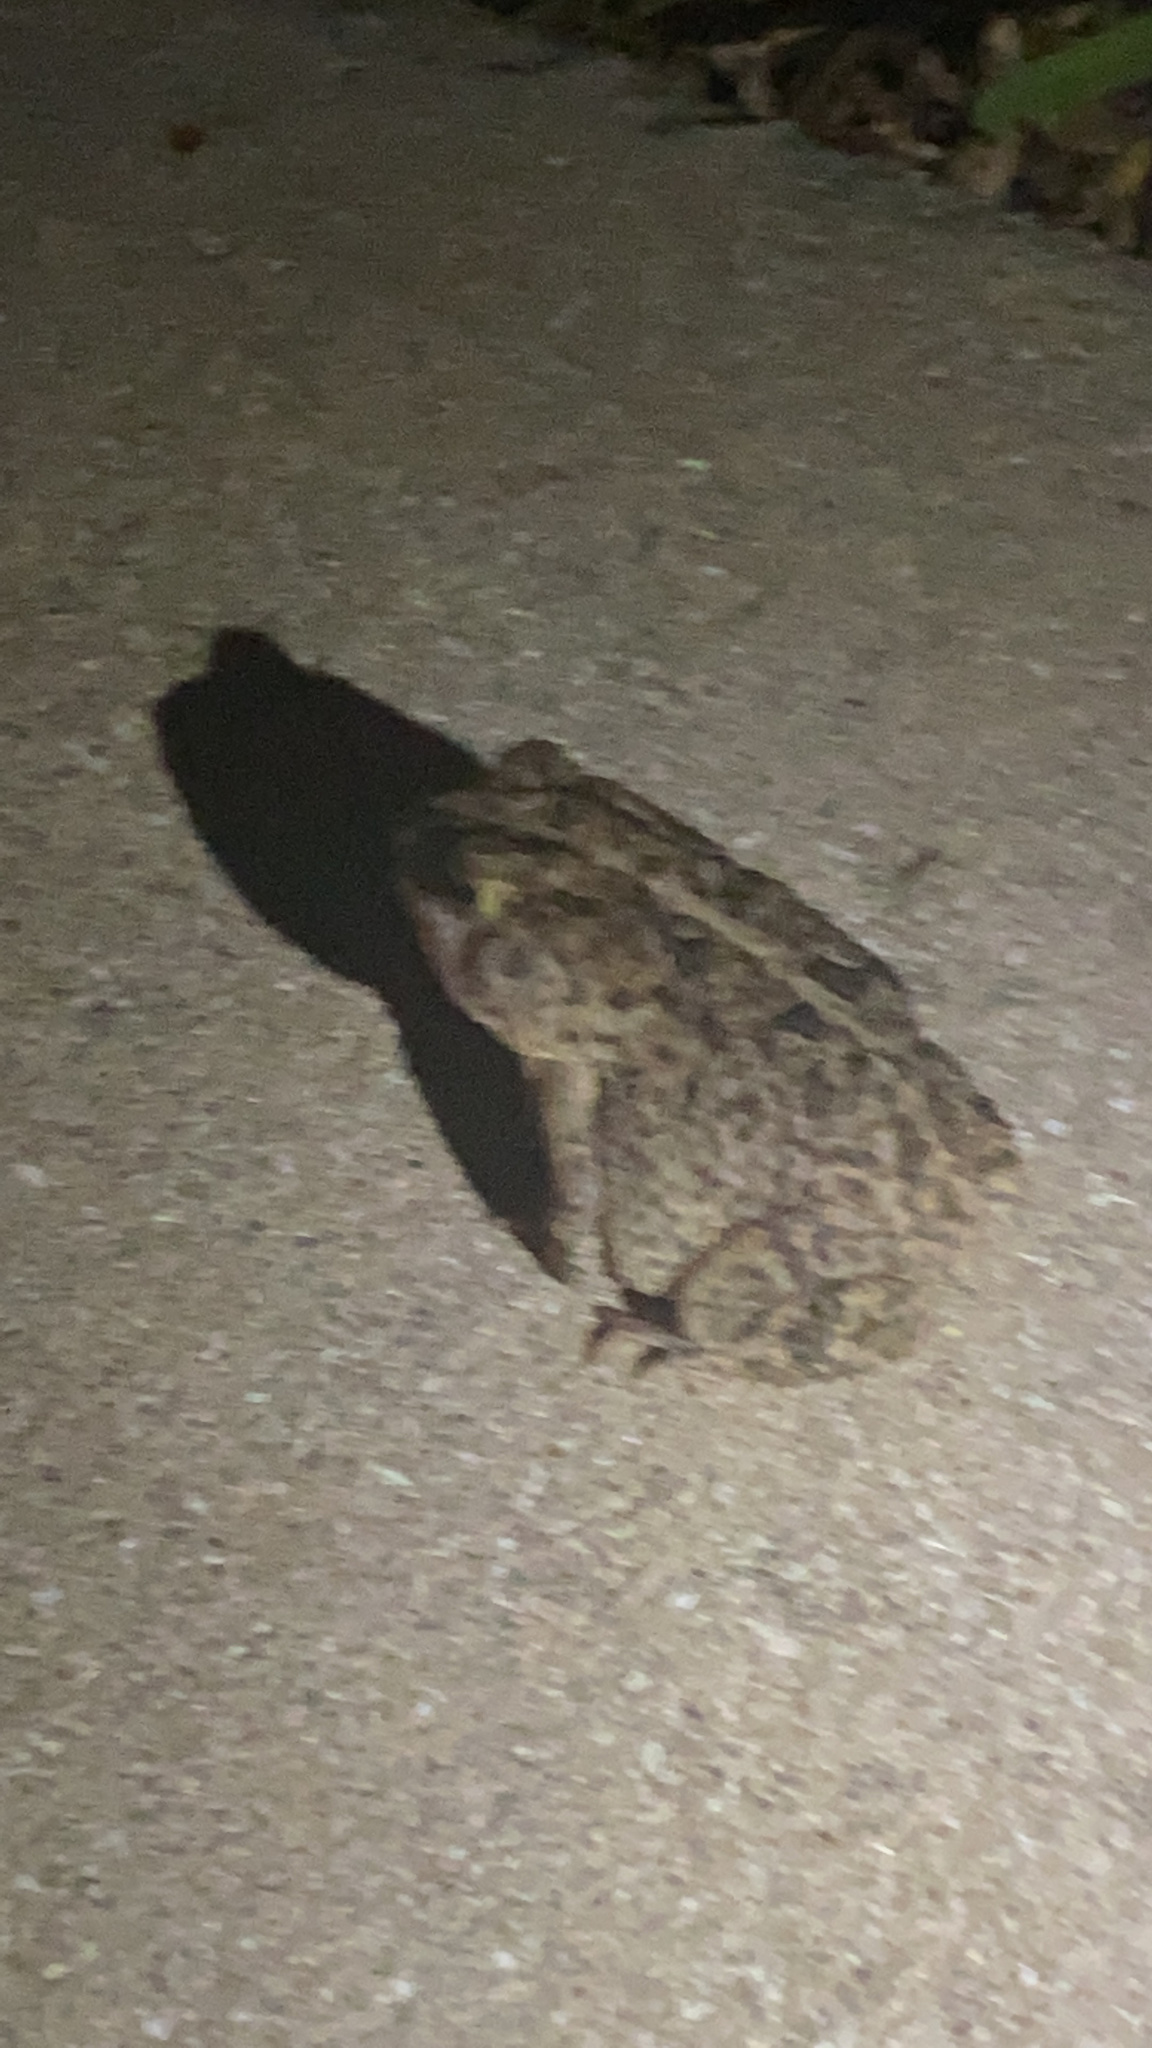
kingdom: Animalia
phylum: Chordata
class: Amphibia
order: Anura
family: Bufonidae
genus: Anaxyrus
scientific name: Anaxyrus terrestris
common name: Southern toad
